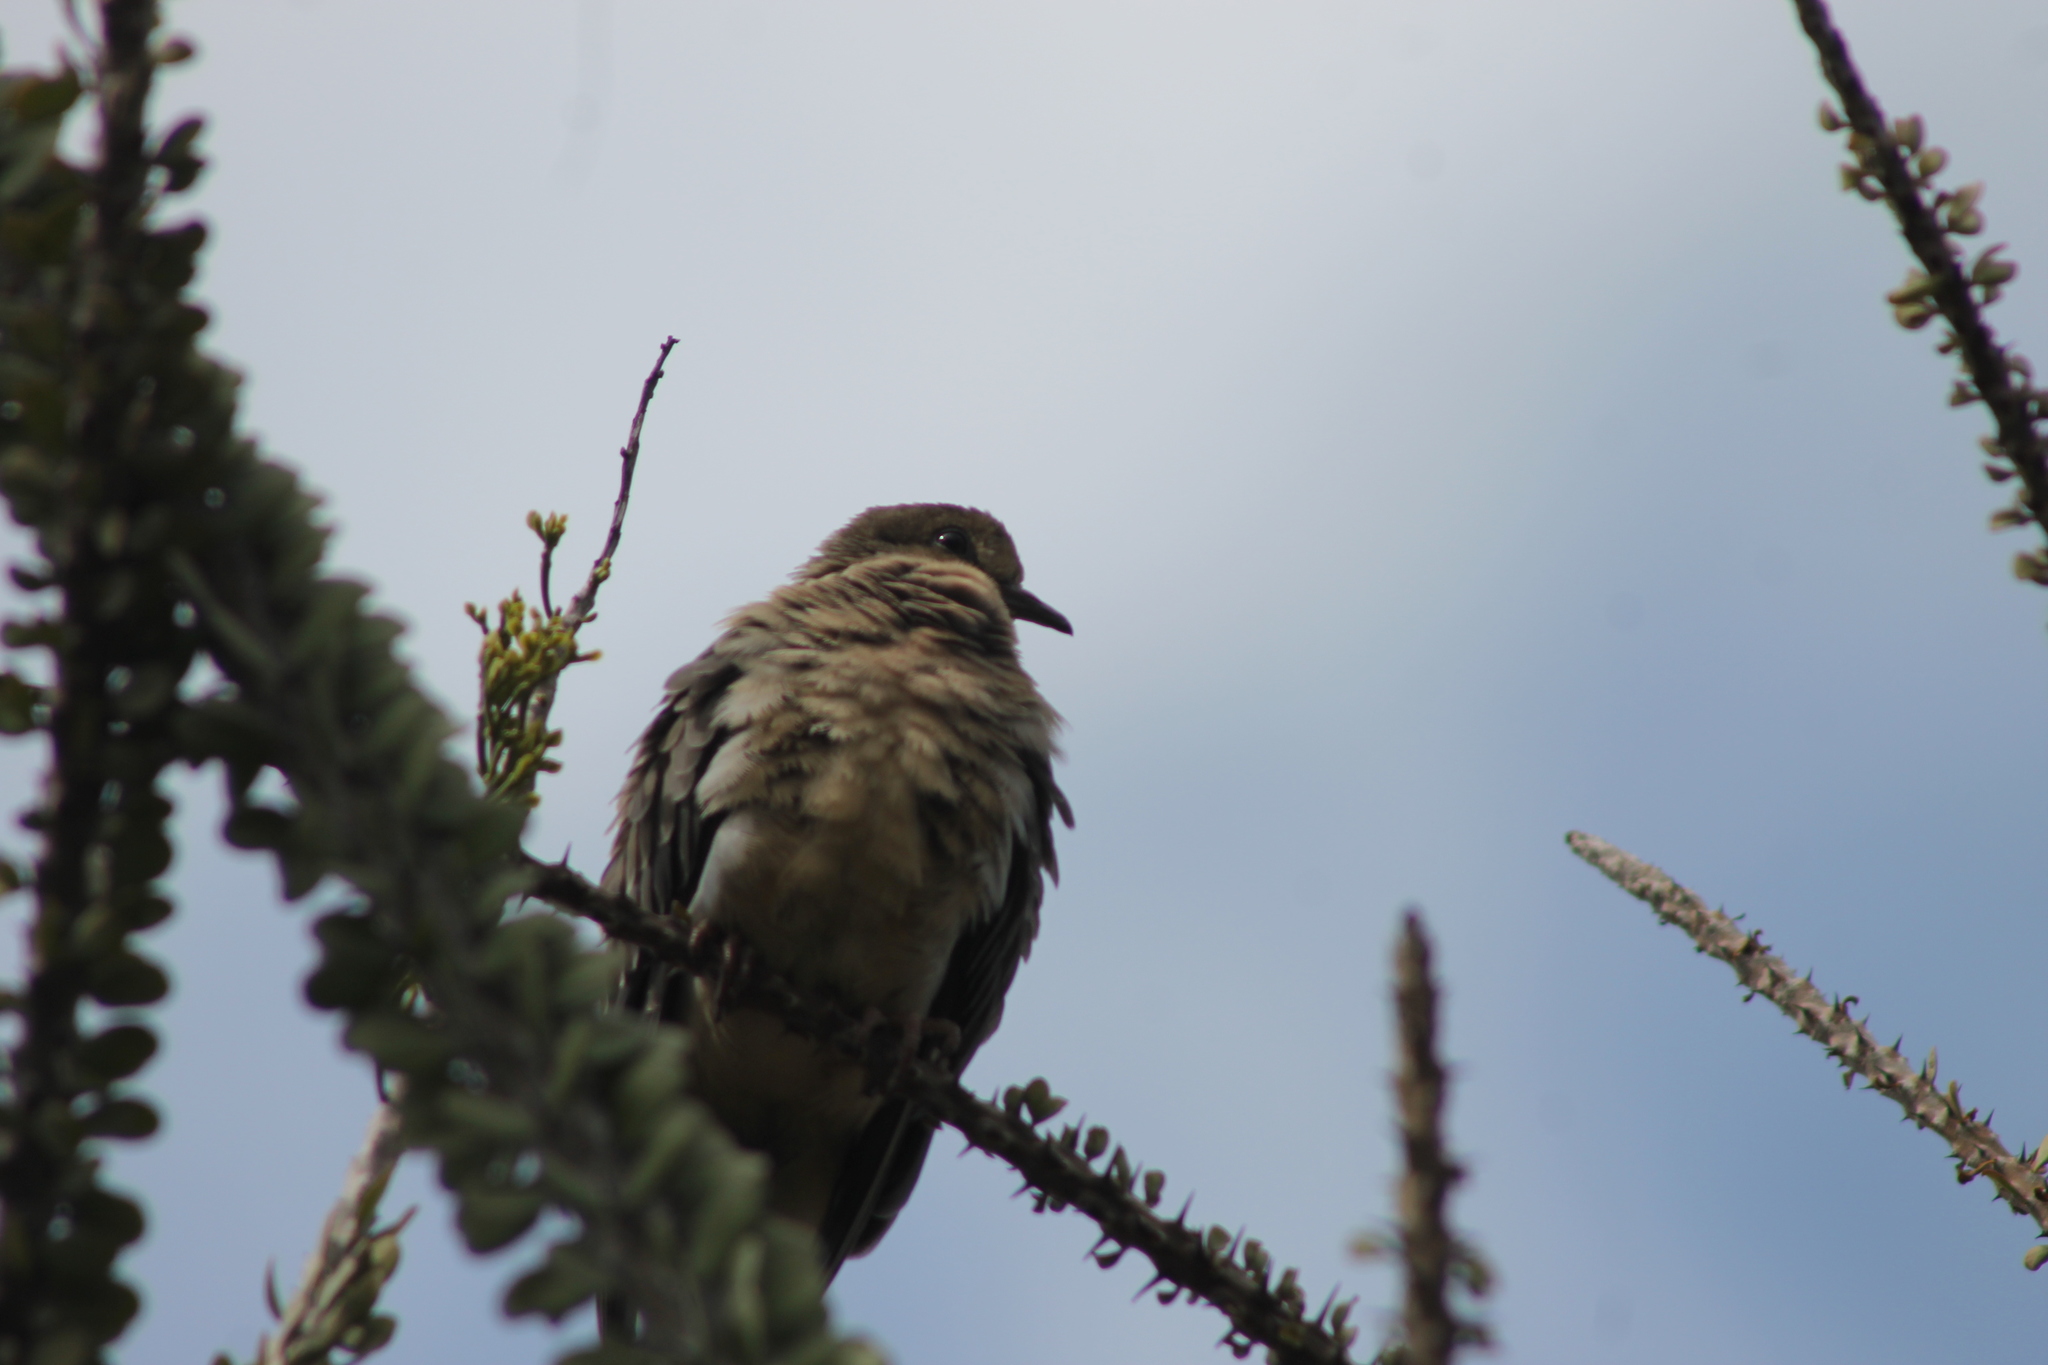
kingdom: Animalia
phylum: Chordata
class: Aves
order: Columbiformes
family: Columbidae
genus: Zenaida
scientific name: Zenaida macroura
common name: Mourning dove
